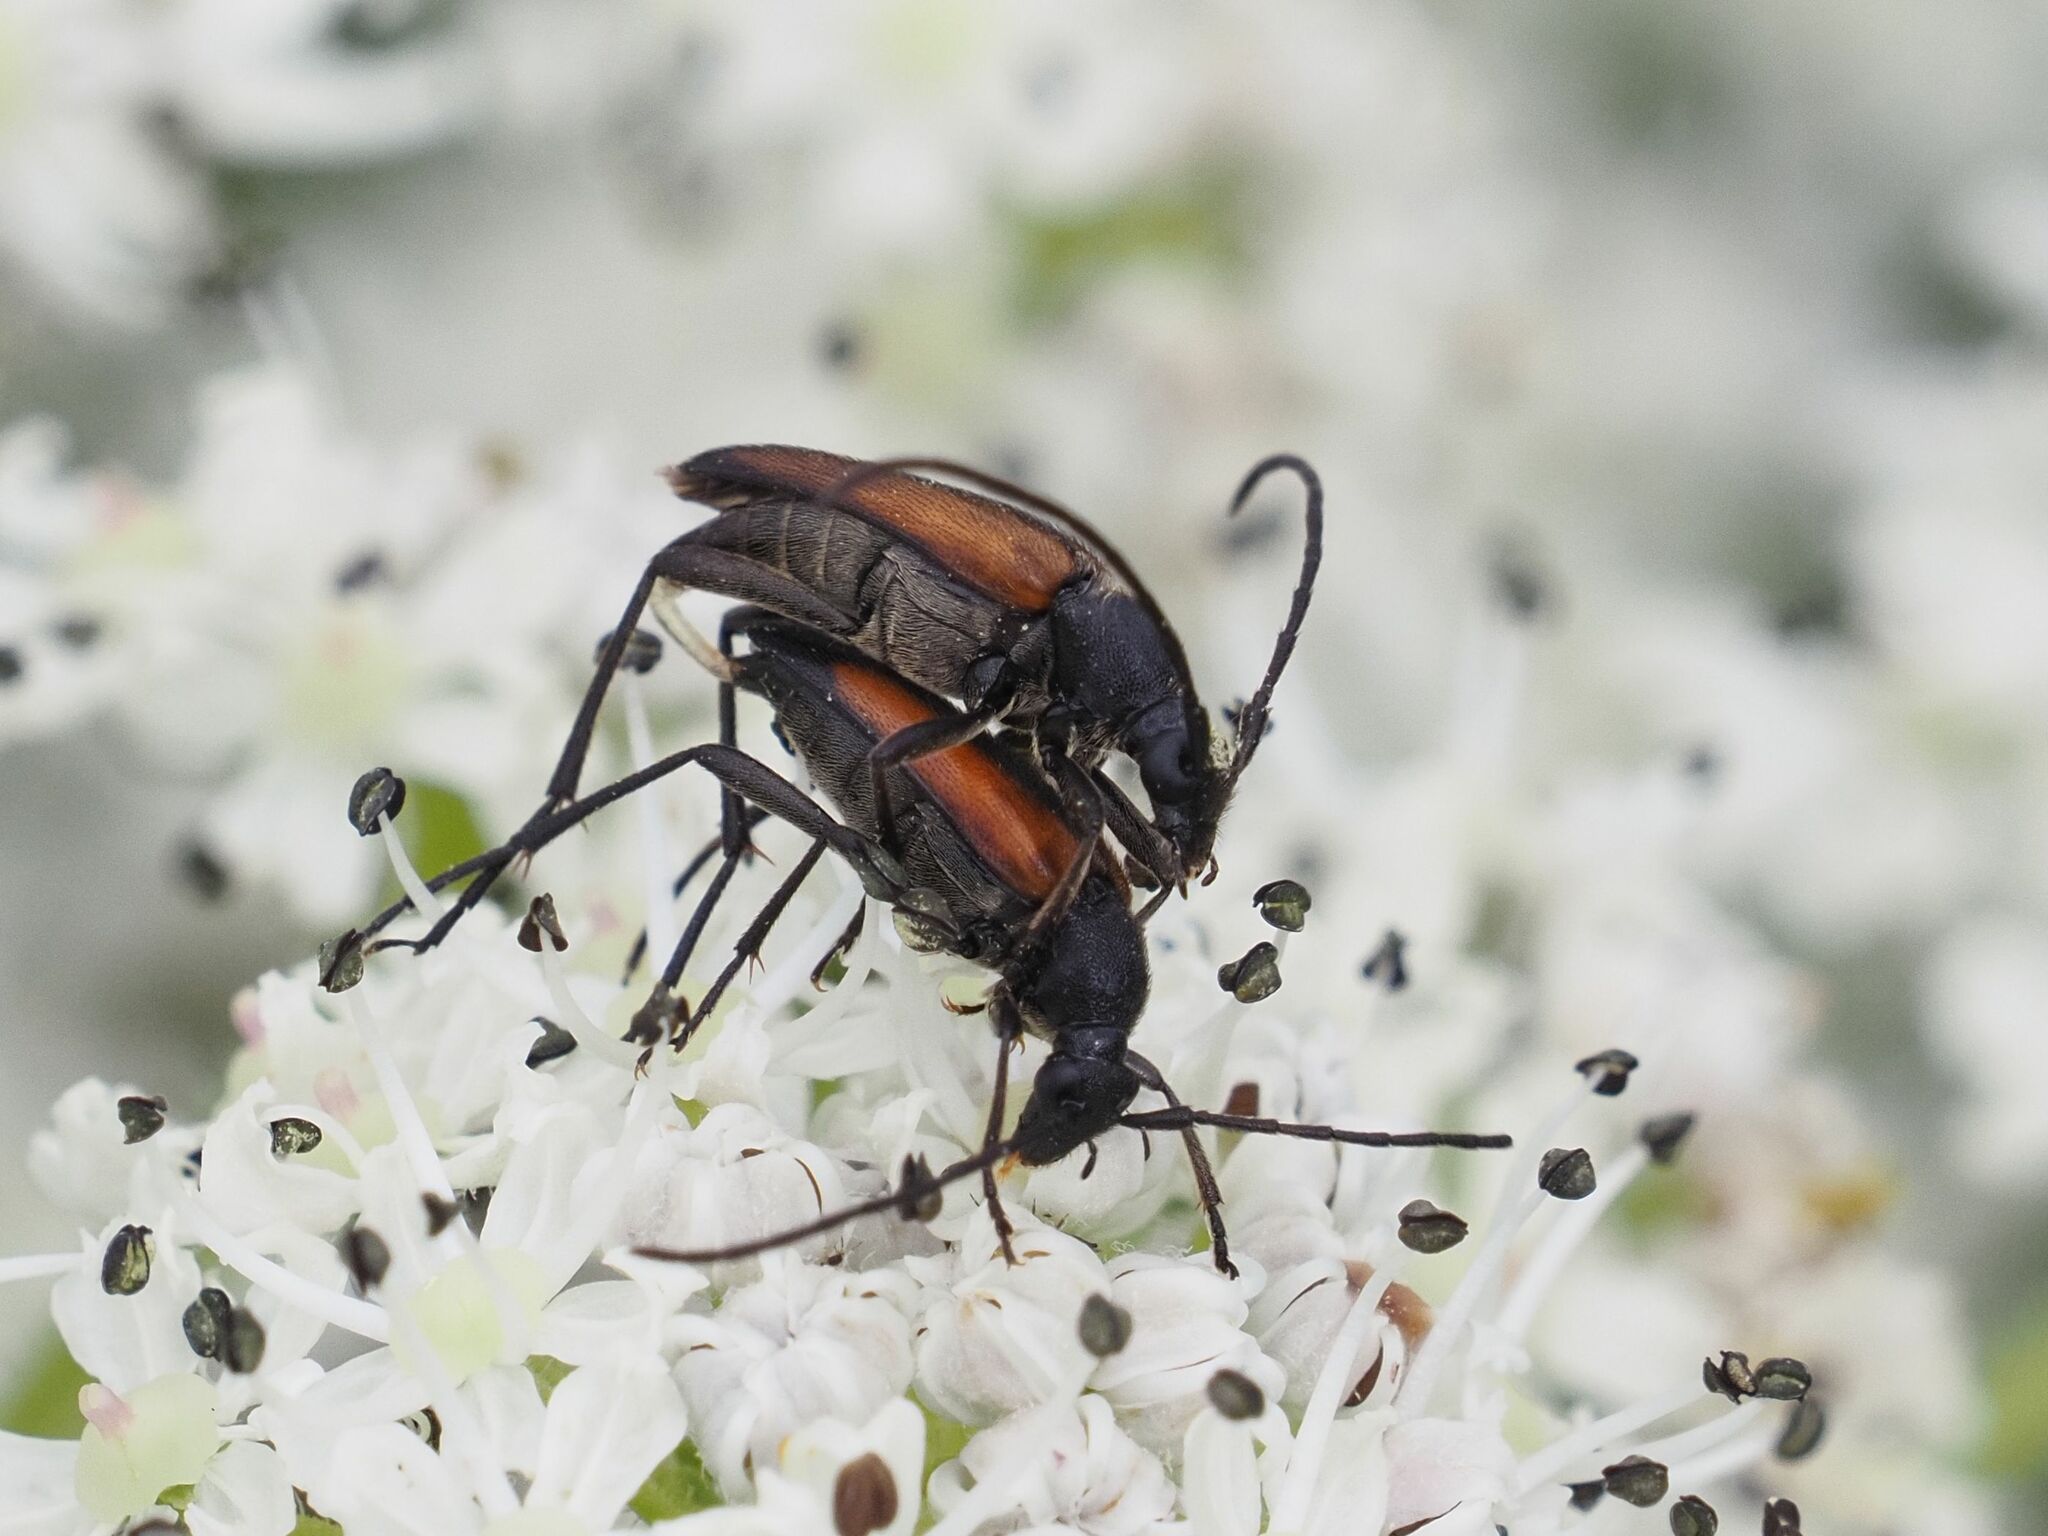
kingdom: Animalia
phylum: Arthropoda
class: Insecta
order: Coleoptera
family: Cerambycidae
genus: Stenurella
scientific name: Stenurella melanura
